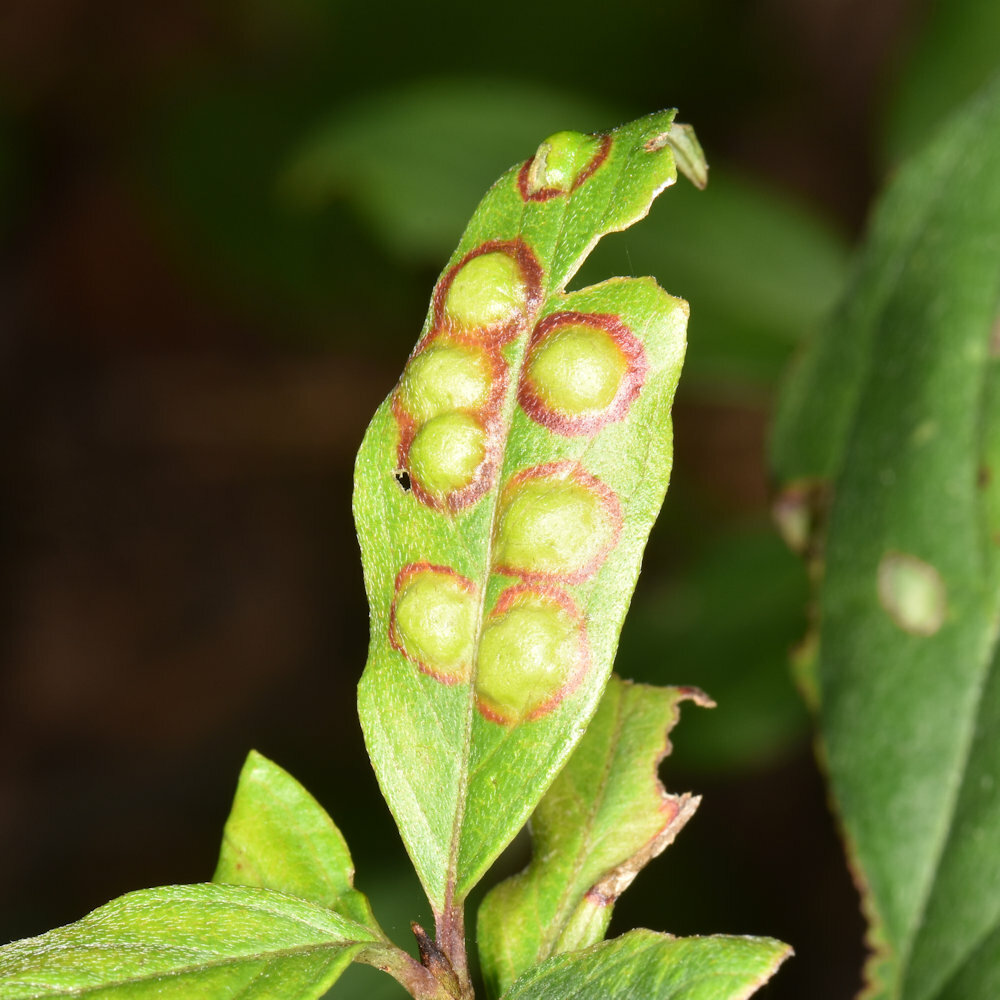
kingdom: Animalia
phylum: Arthropoda
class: Insecta
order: Diptera
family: Cecidomyiidae
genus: Parallelodiplosis
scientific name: Parallelodiplosis subtruncata
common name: Dogwood eyespot gall midge
